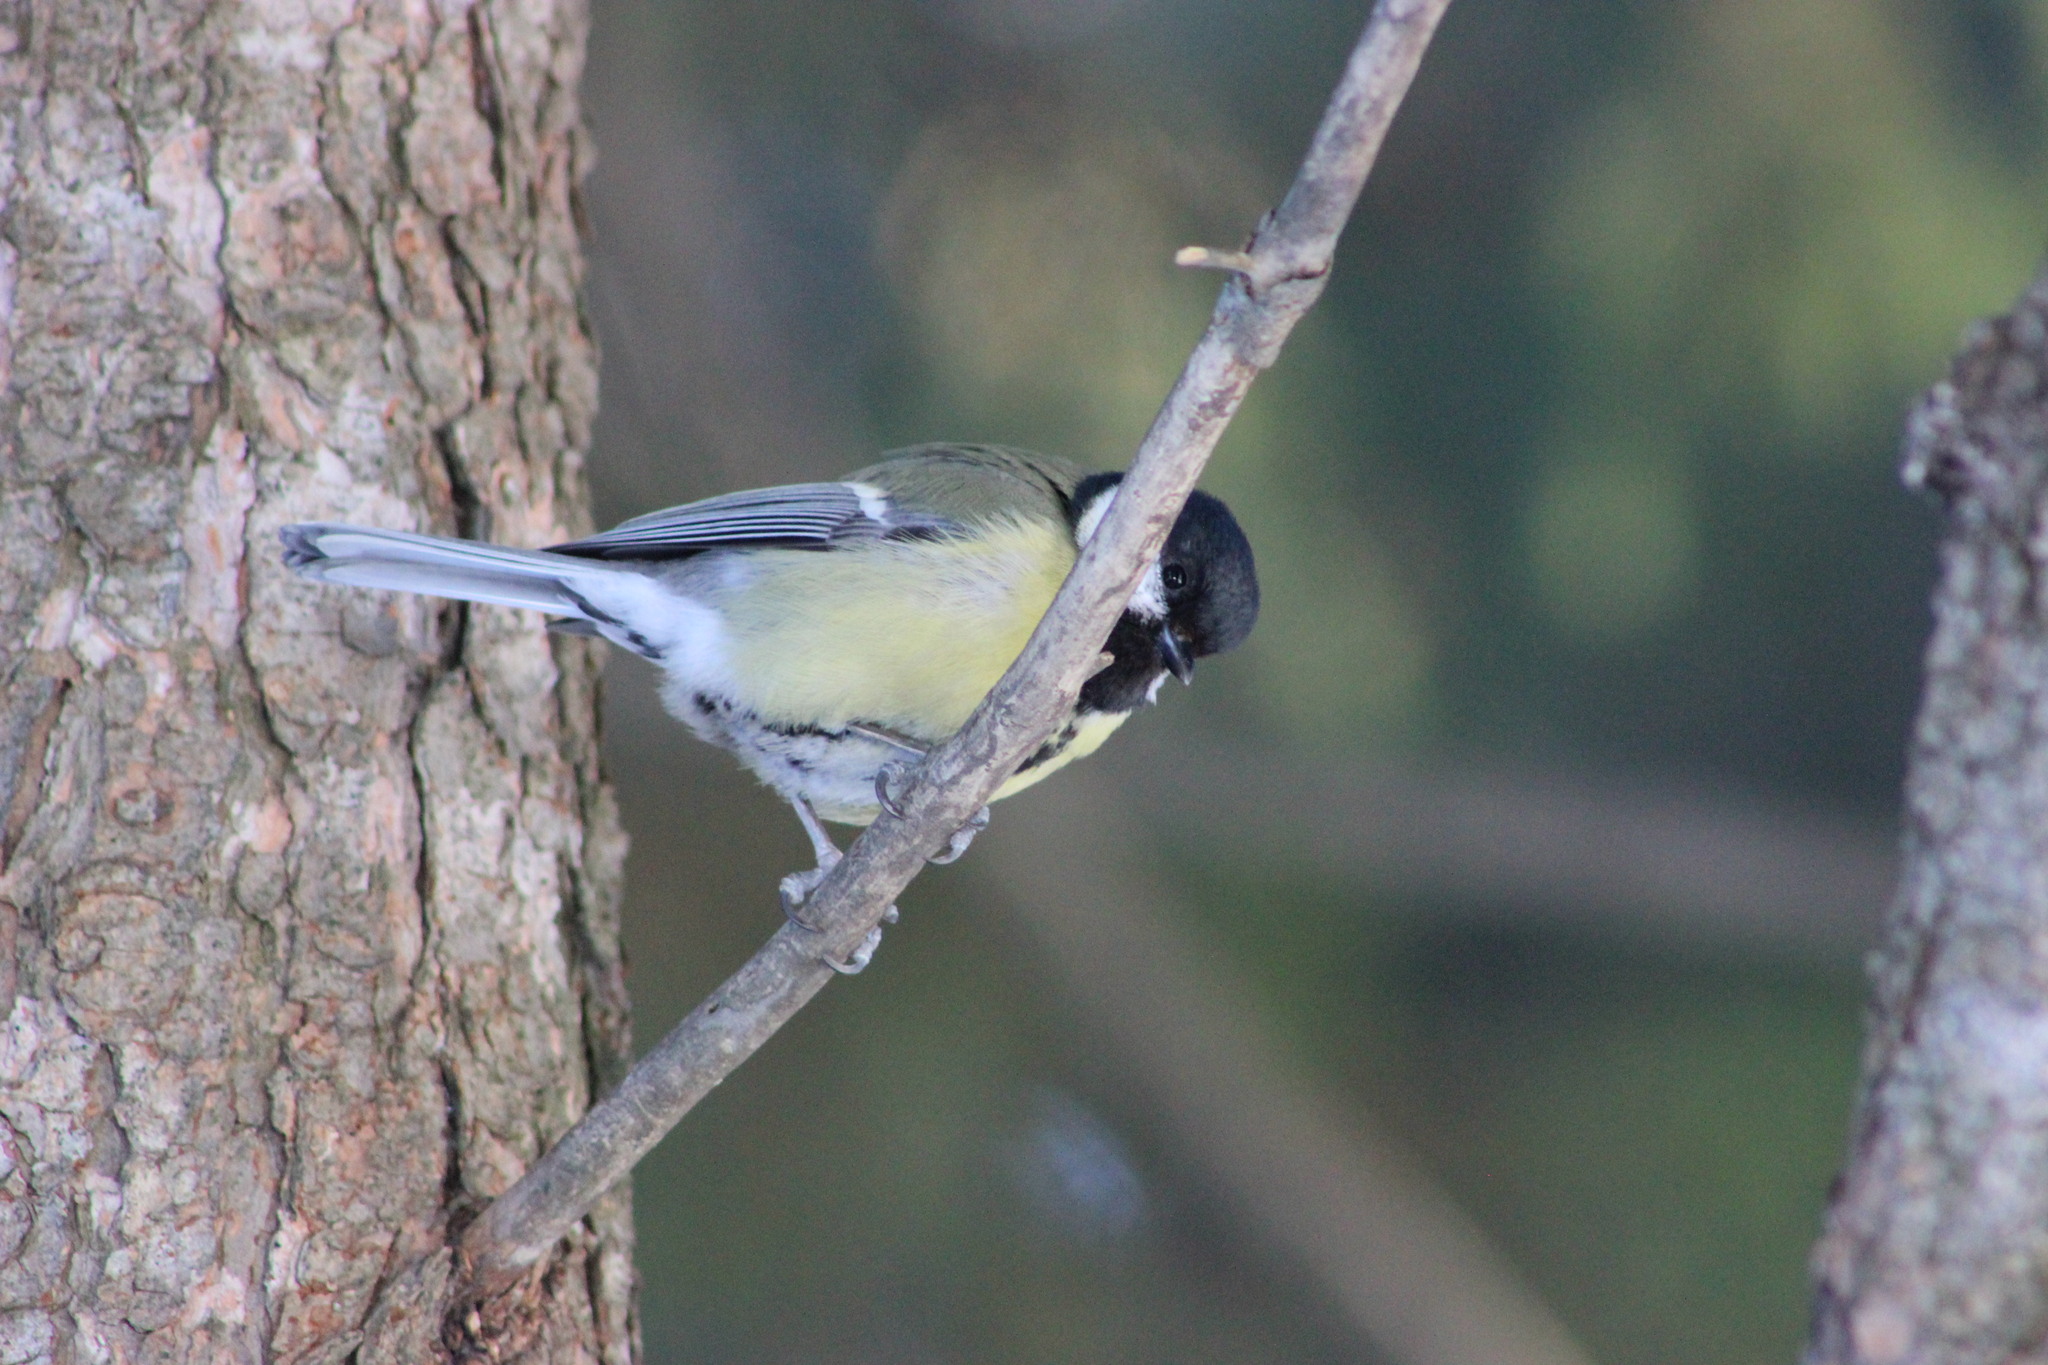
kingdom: Animalia
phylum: Chordata
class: Aves
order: Passeriformes
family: Paridae
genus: Parus
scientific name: Parus major
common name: Great tit
